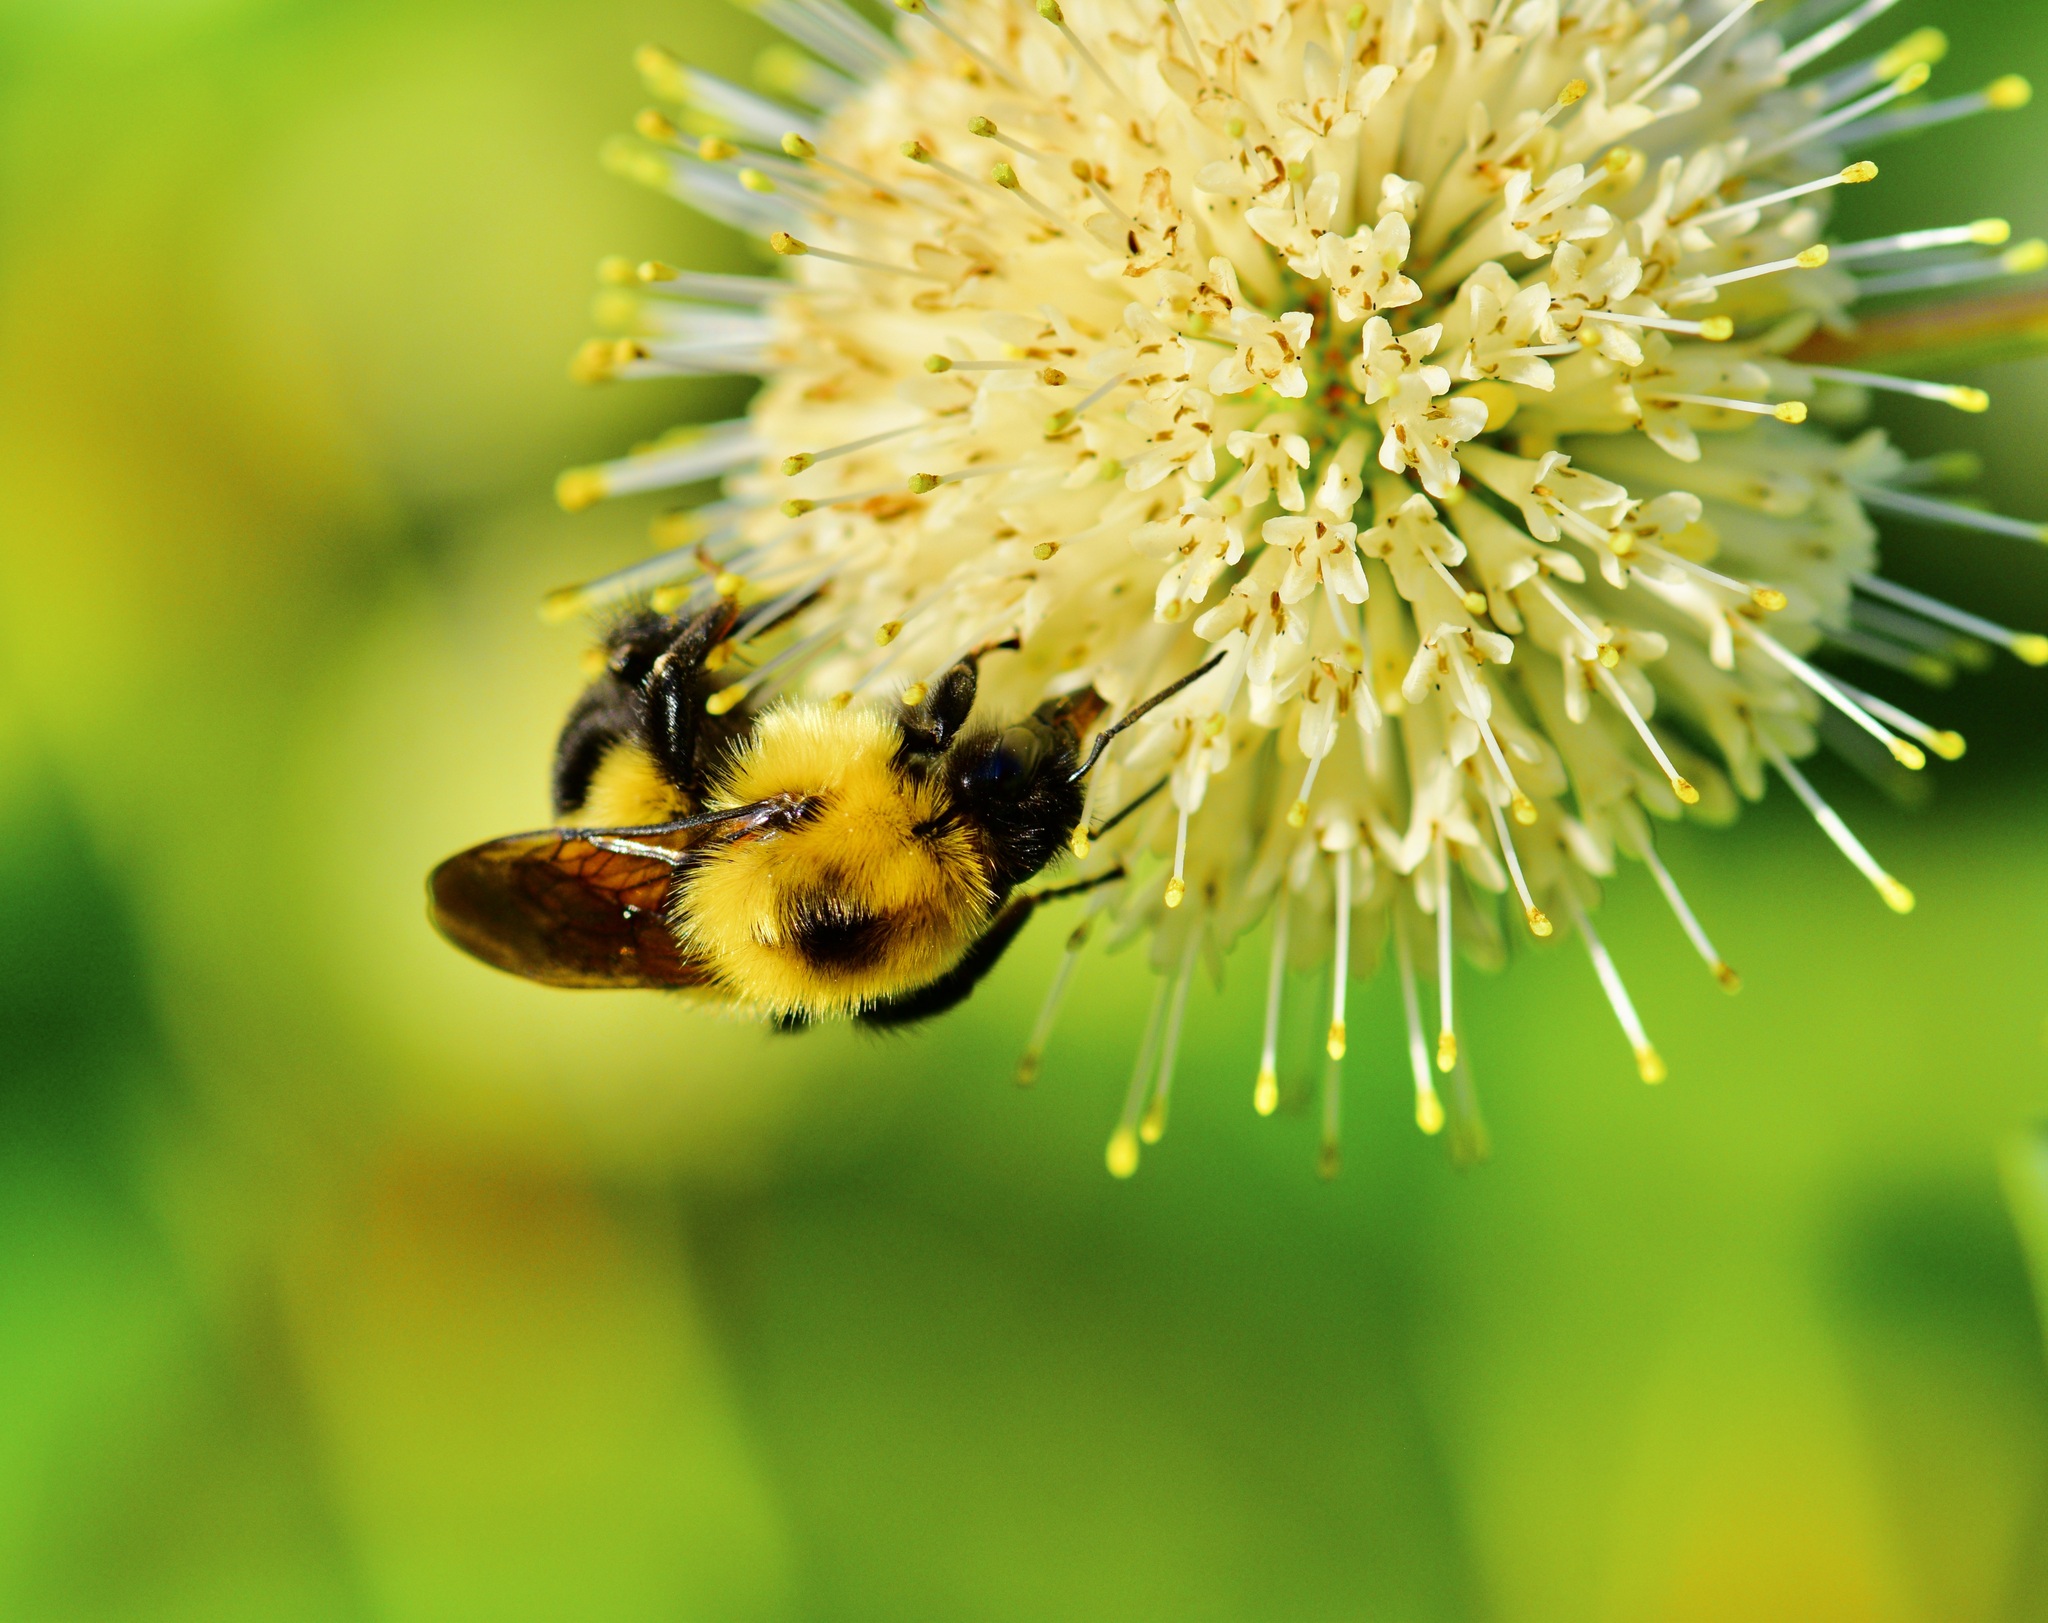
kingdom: Animalia
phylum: Arthropoda
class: Insecta
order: Hymenoptera
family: Apidae
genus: Bombus
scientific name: Bombus bimaculatus
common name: Two-spotted bumble bee
